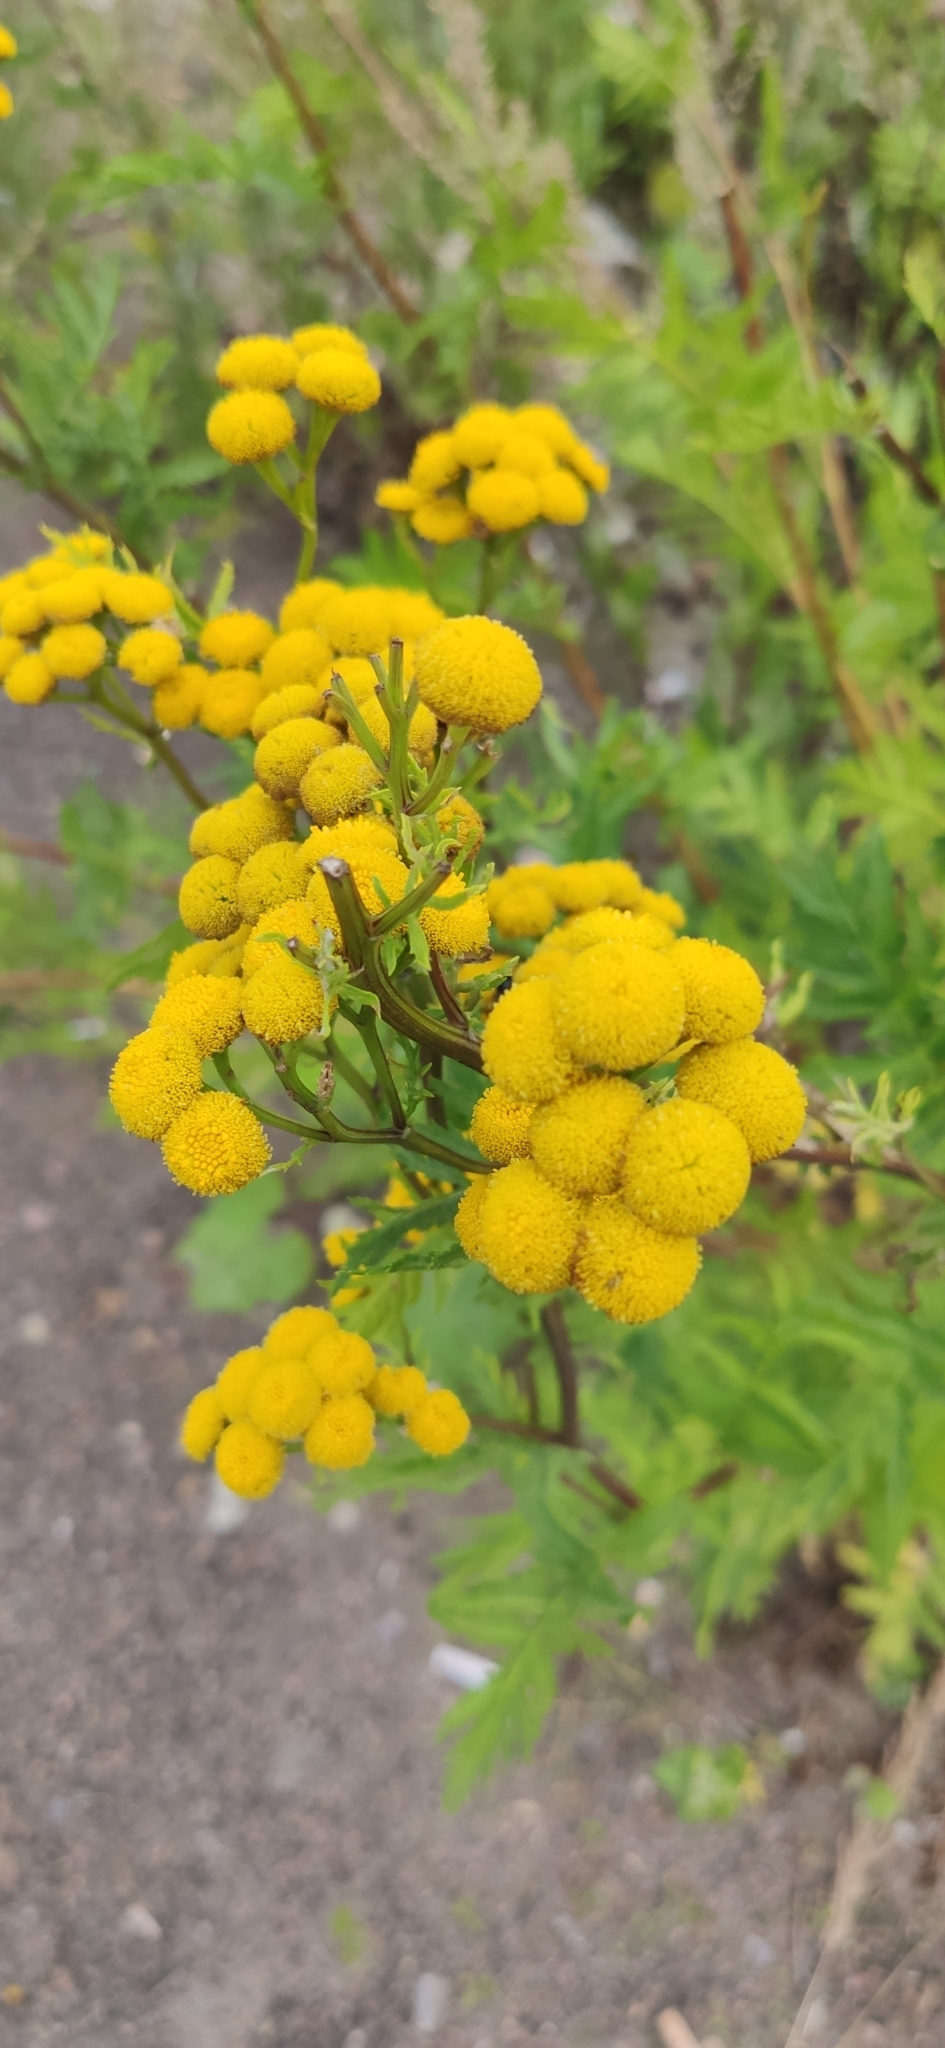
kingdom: Plantae
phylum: Tracheophyta
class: Magnoliopsida
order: Asterales
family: Asteraceae
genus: Tanacetum
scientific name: Tanacetum vulgare
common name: Common tansy
